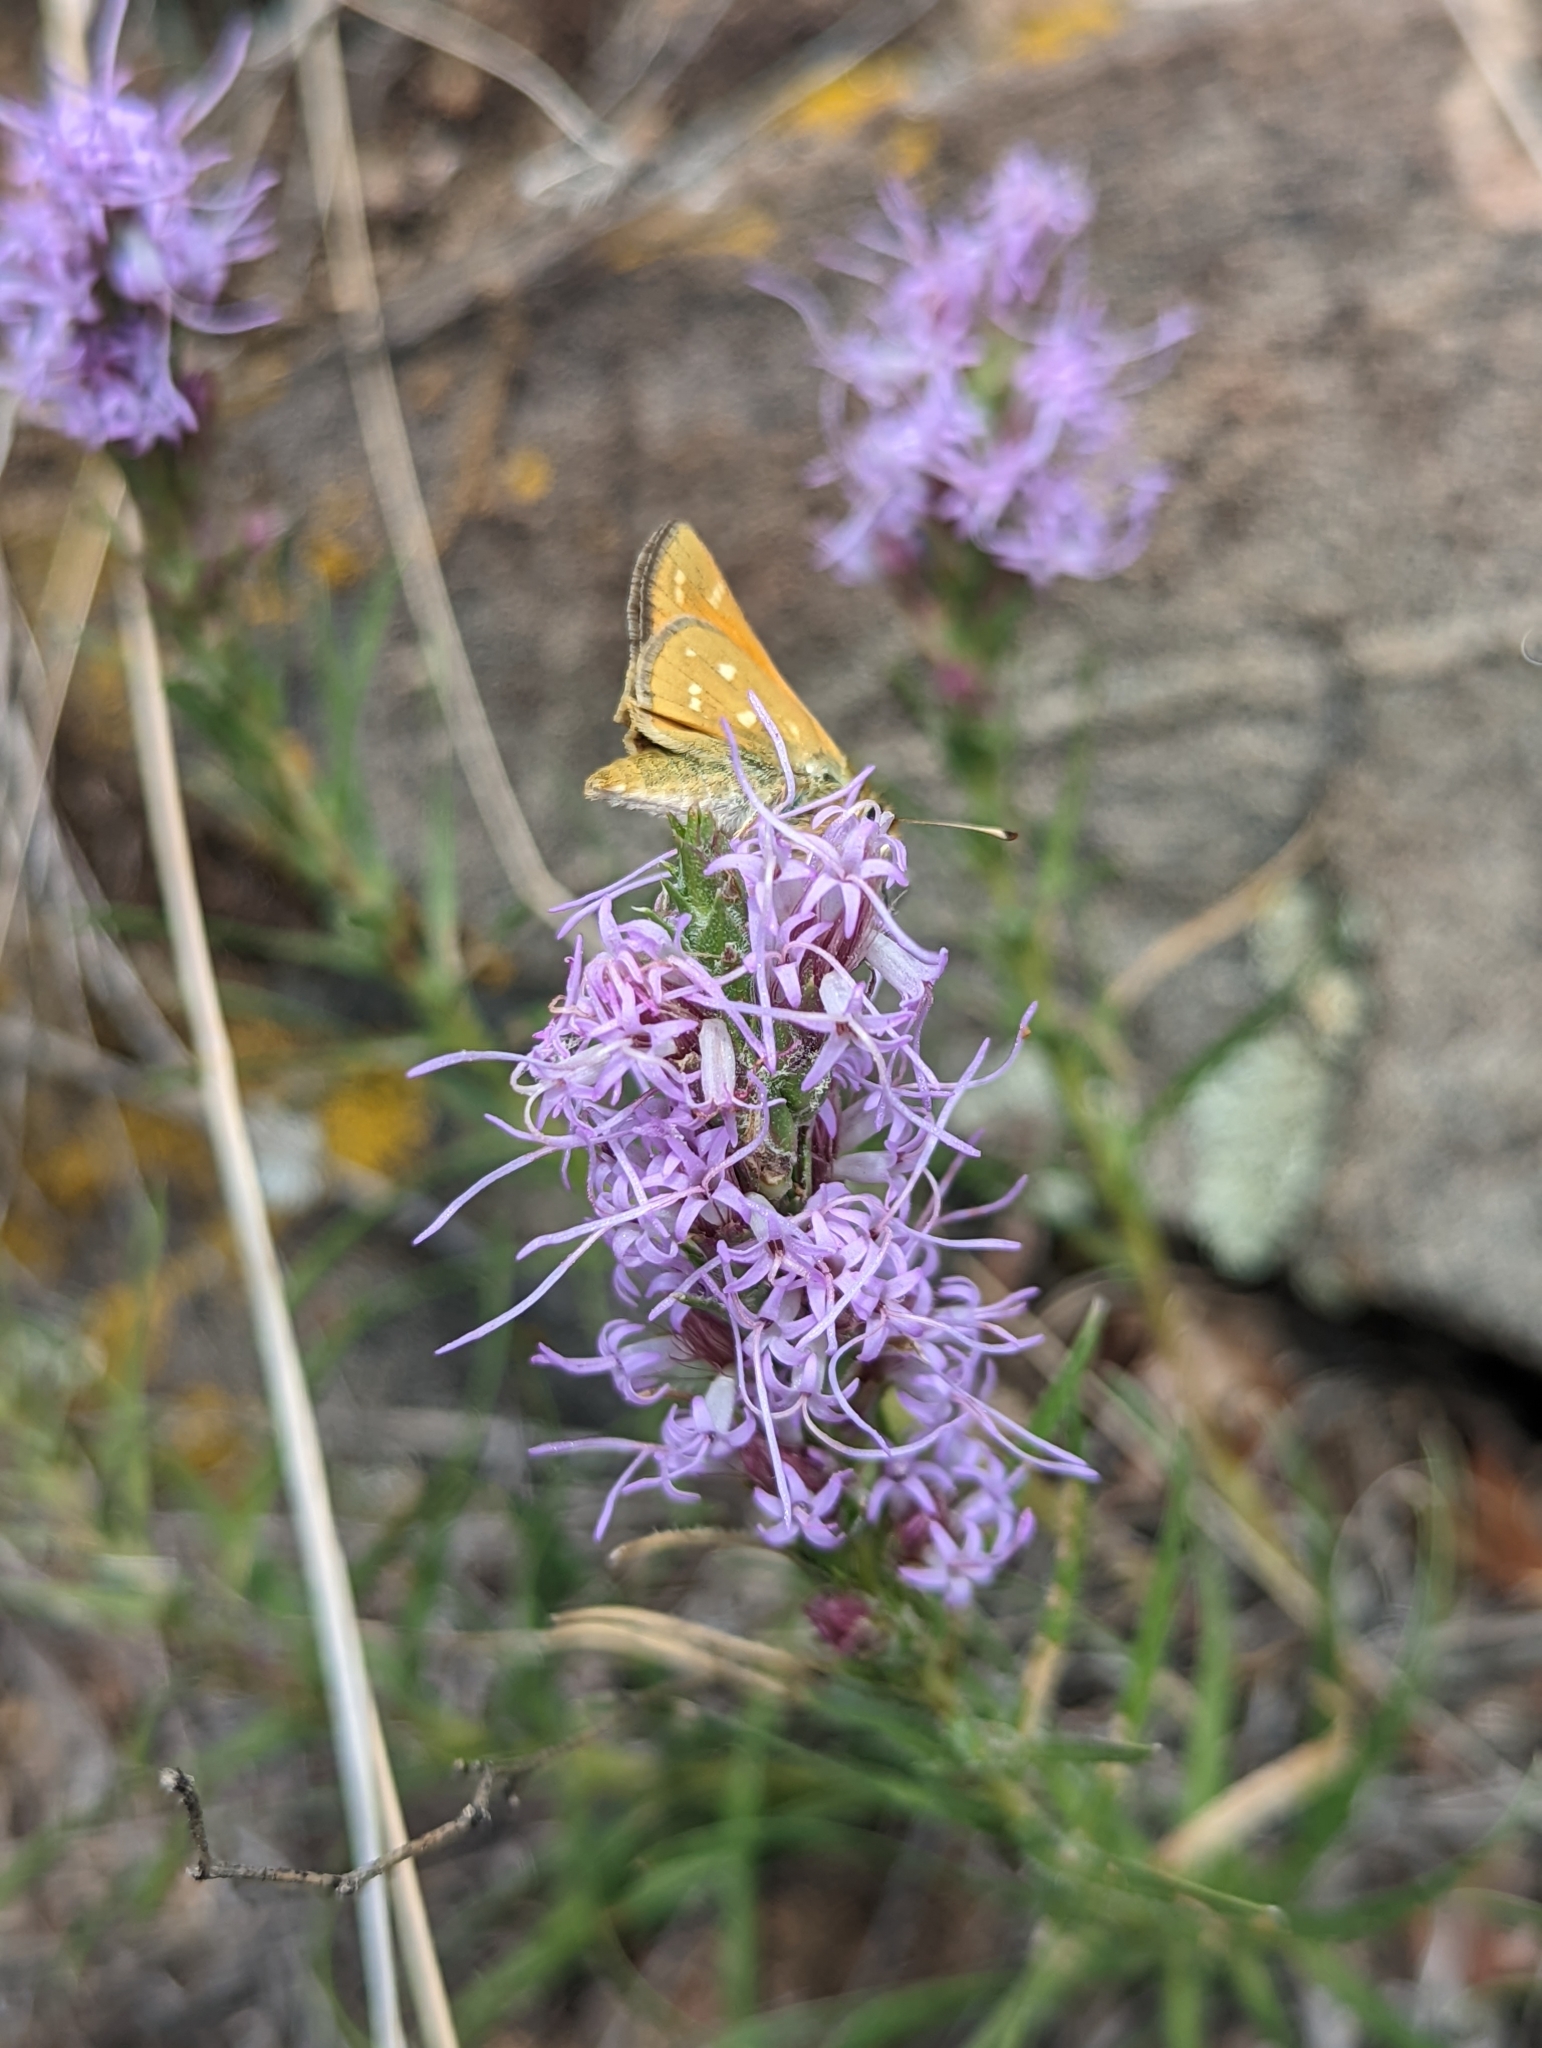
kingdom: Plantae
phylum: Tracheophyta
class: Magnoliopsida
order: Asterales
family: Asteraceae
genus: Liatris
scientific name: Liatris punctata
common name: Dotted gayfeather
